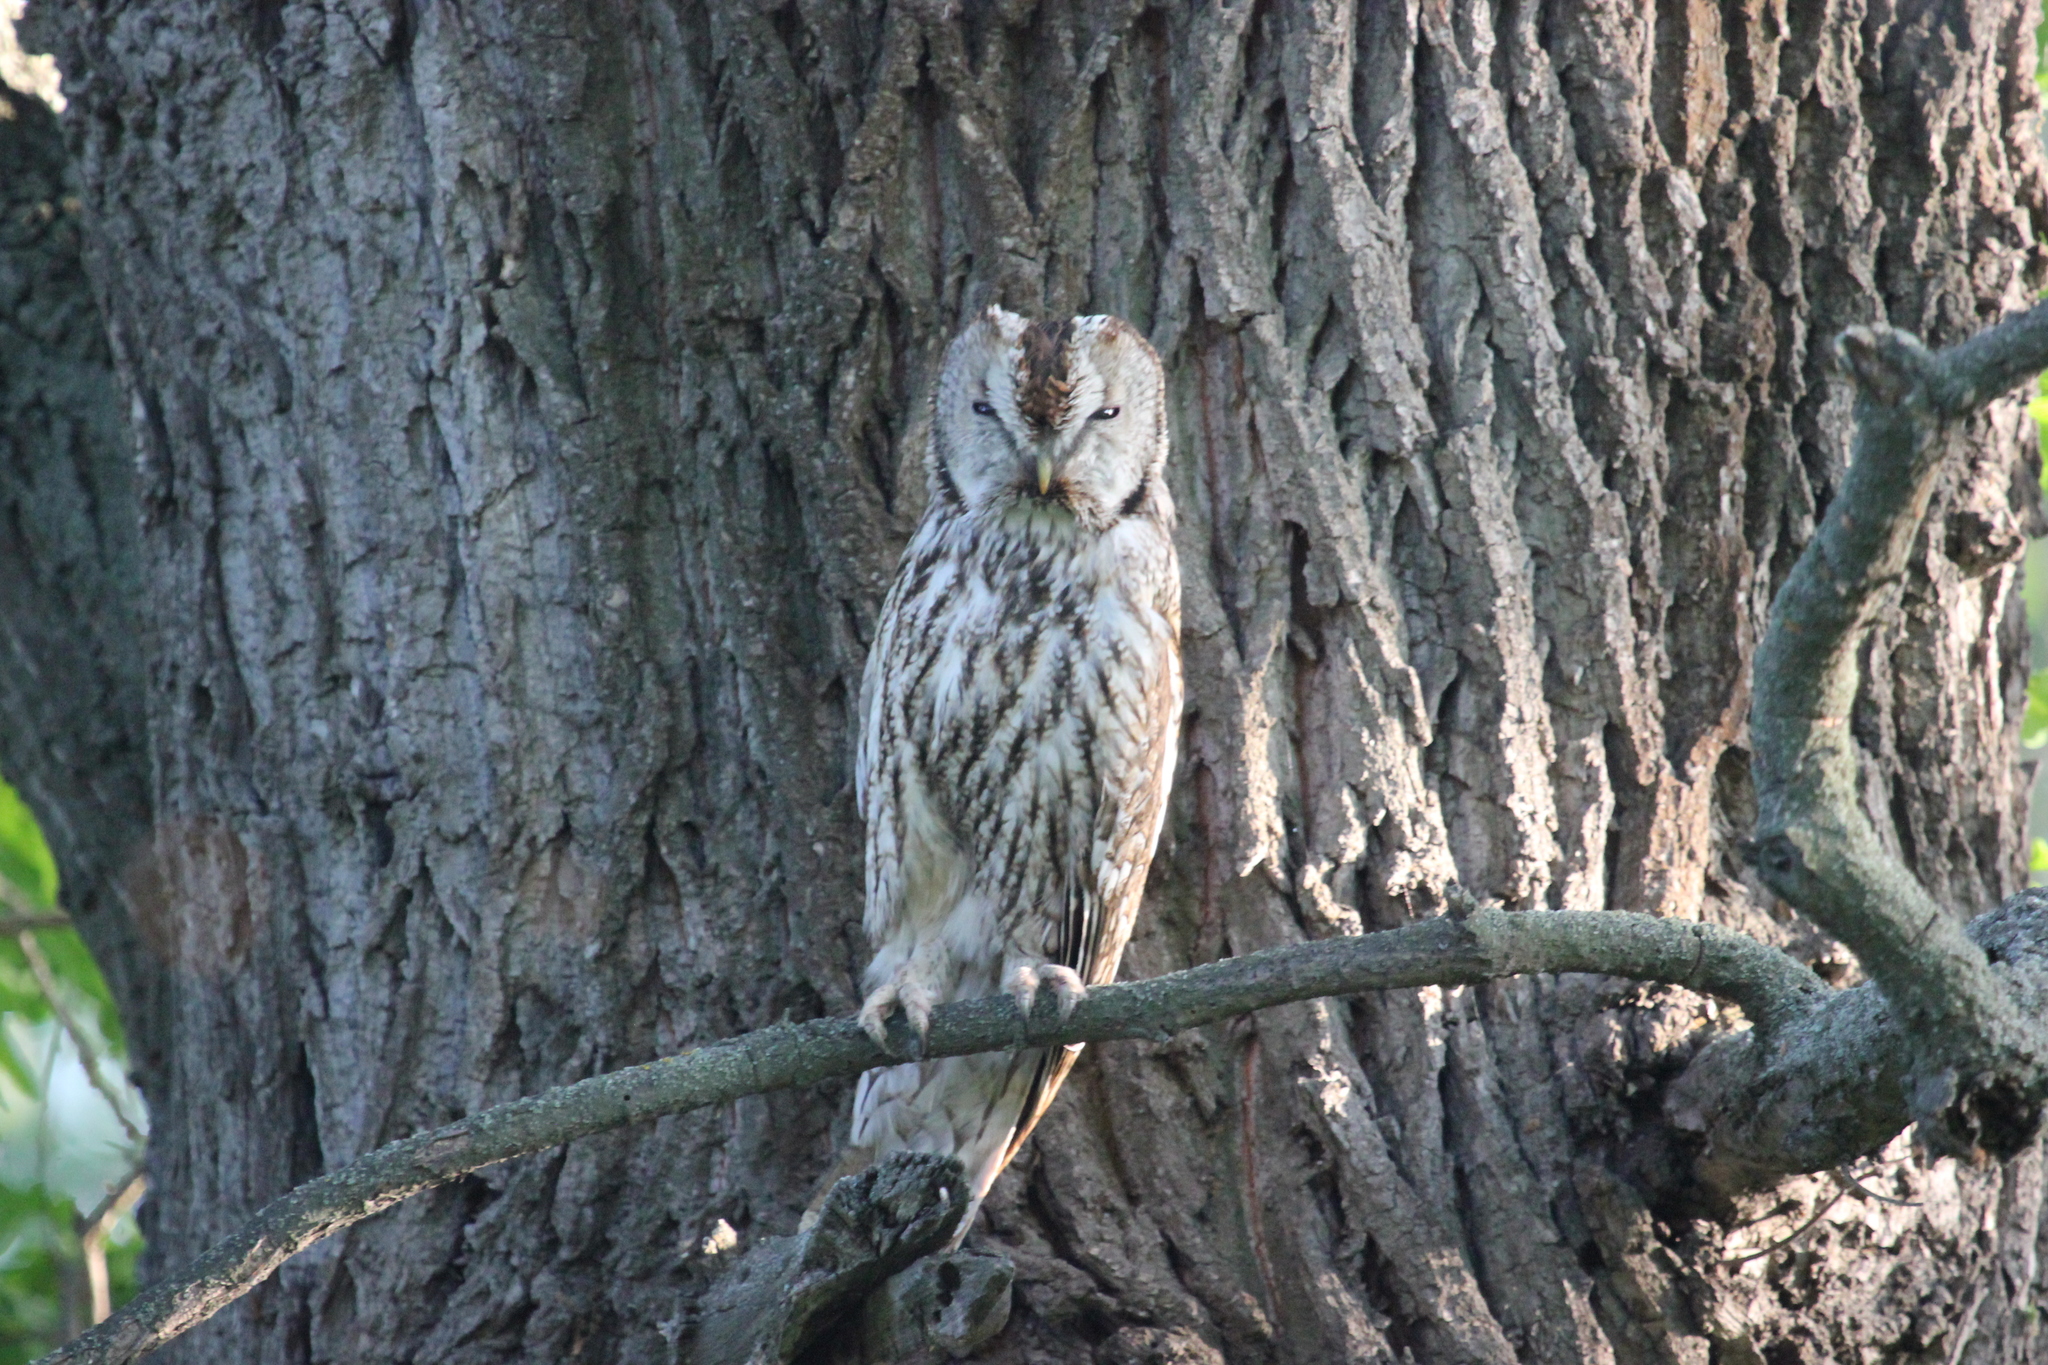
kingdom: Animalia
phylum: Chordata
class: Aves
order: Strigiformes
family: Strigidae
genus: Strix
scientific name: Strix aluco
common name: Tawny owl
